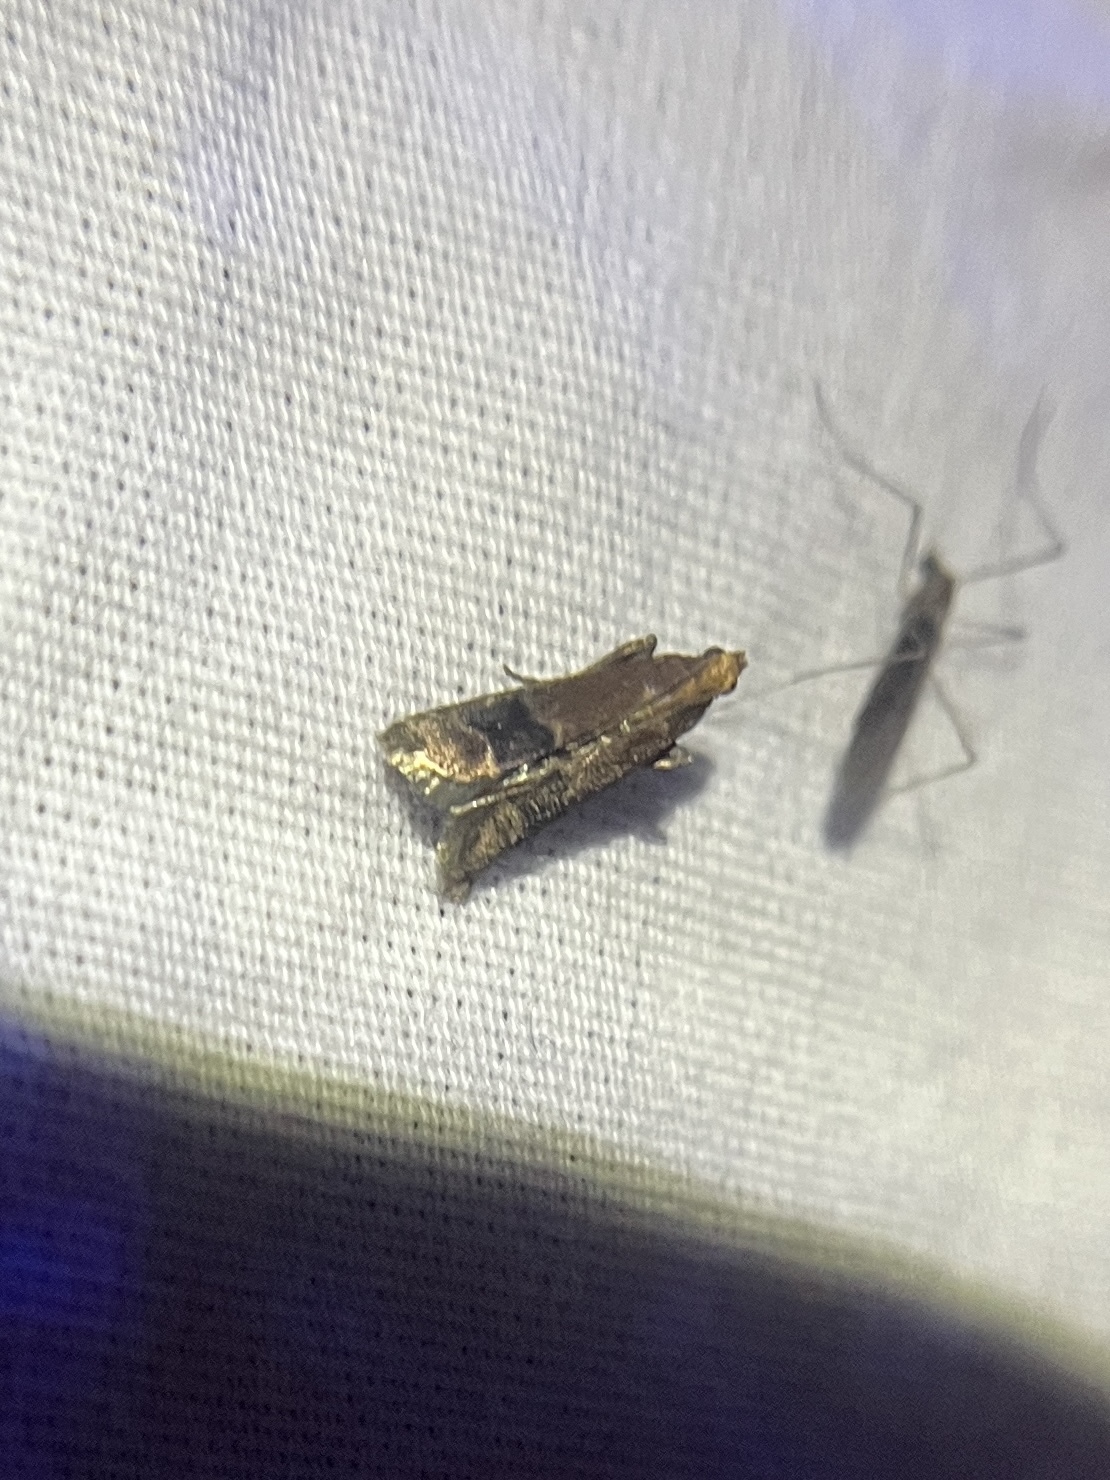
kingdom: Animalia
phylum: Arthropoda
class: Insecta
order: Lepidoptera
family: Pyralidae
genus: Eulogia
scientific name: Eulogia ochrifrontella
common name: Broad-banded eulogia moth
